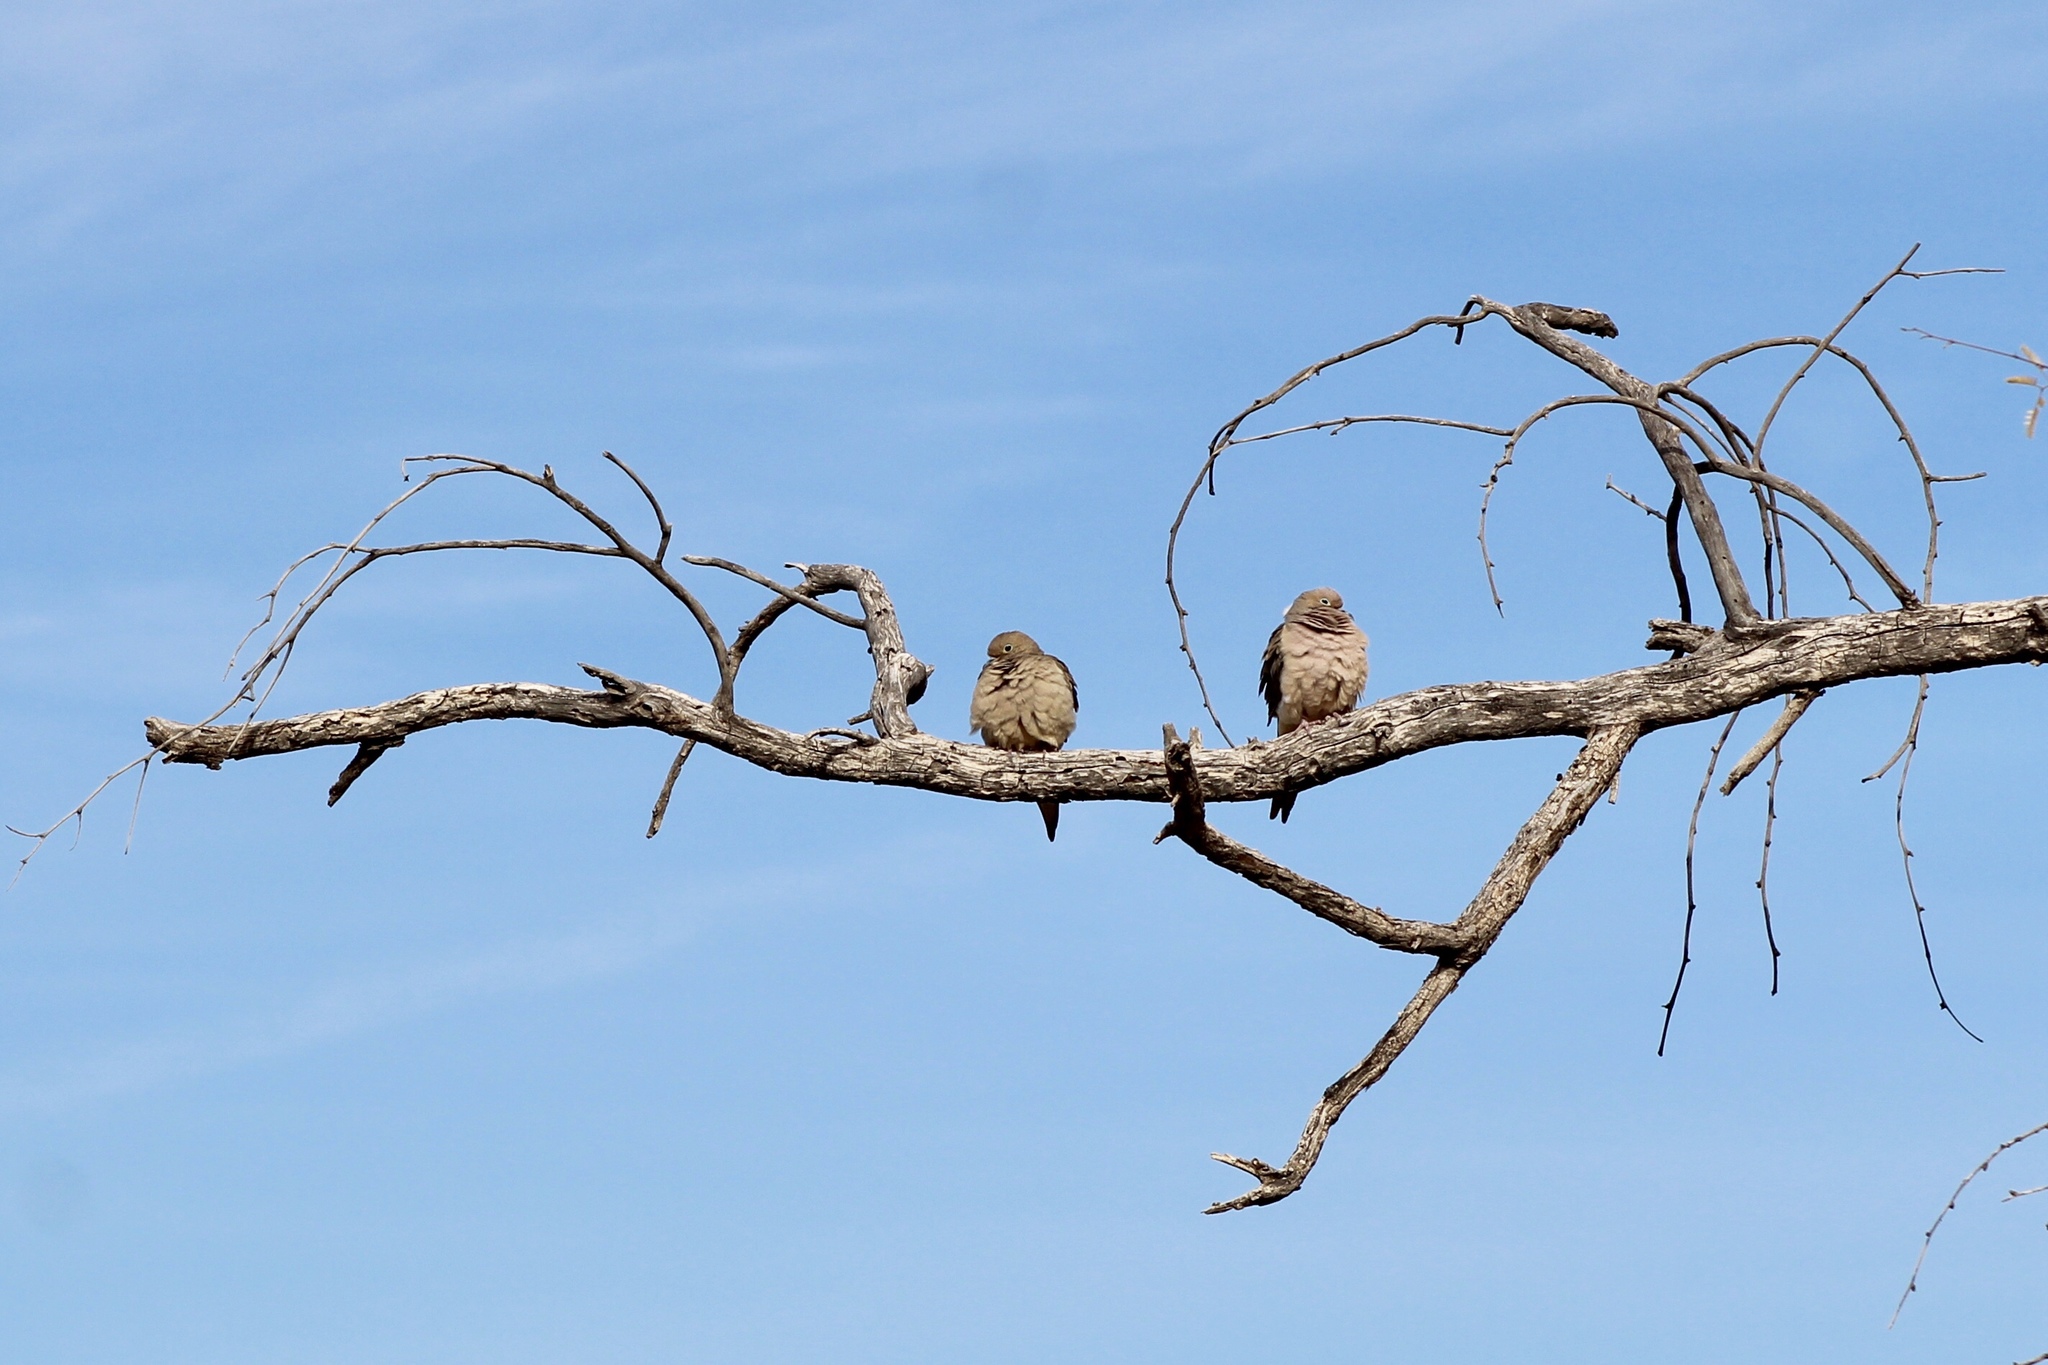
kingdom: Animalia
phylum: Chordata
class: Aves
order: Columbiformes
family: Columbidae
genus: Zenaida
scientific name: Zenaida macroura
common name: Mourning dove
